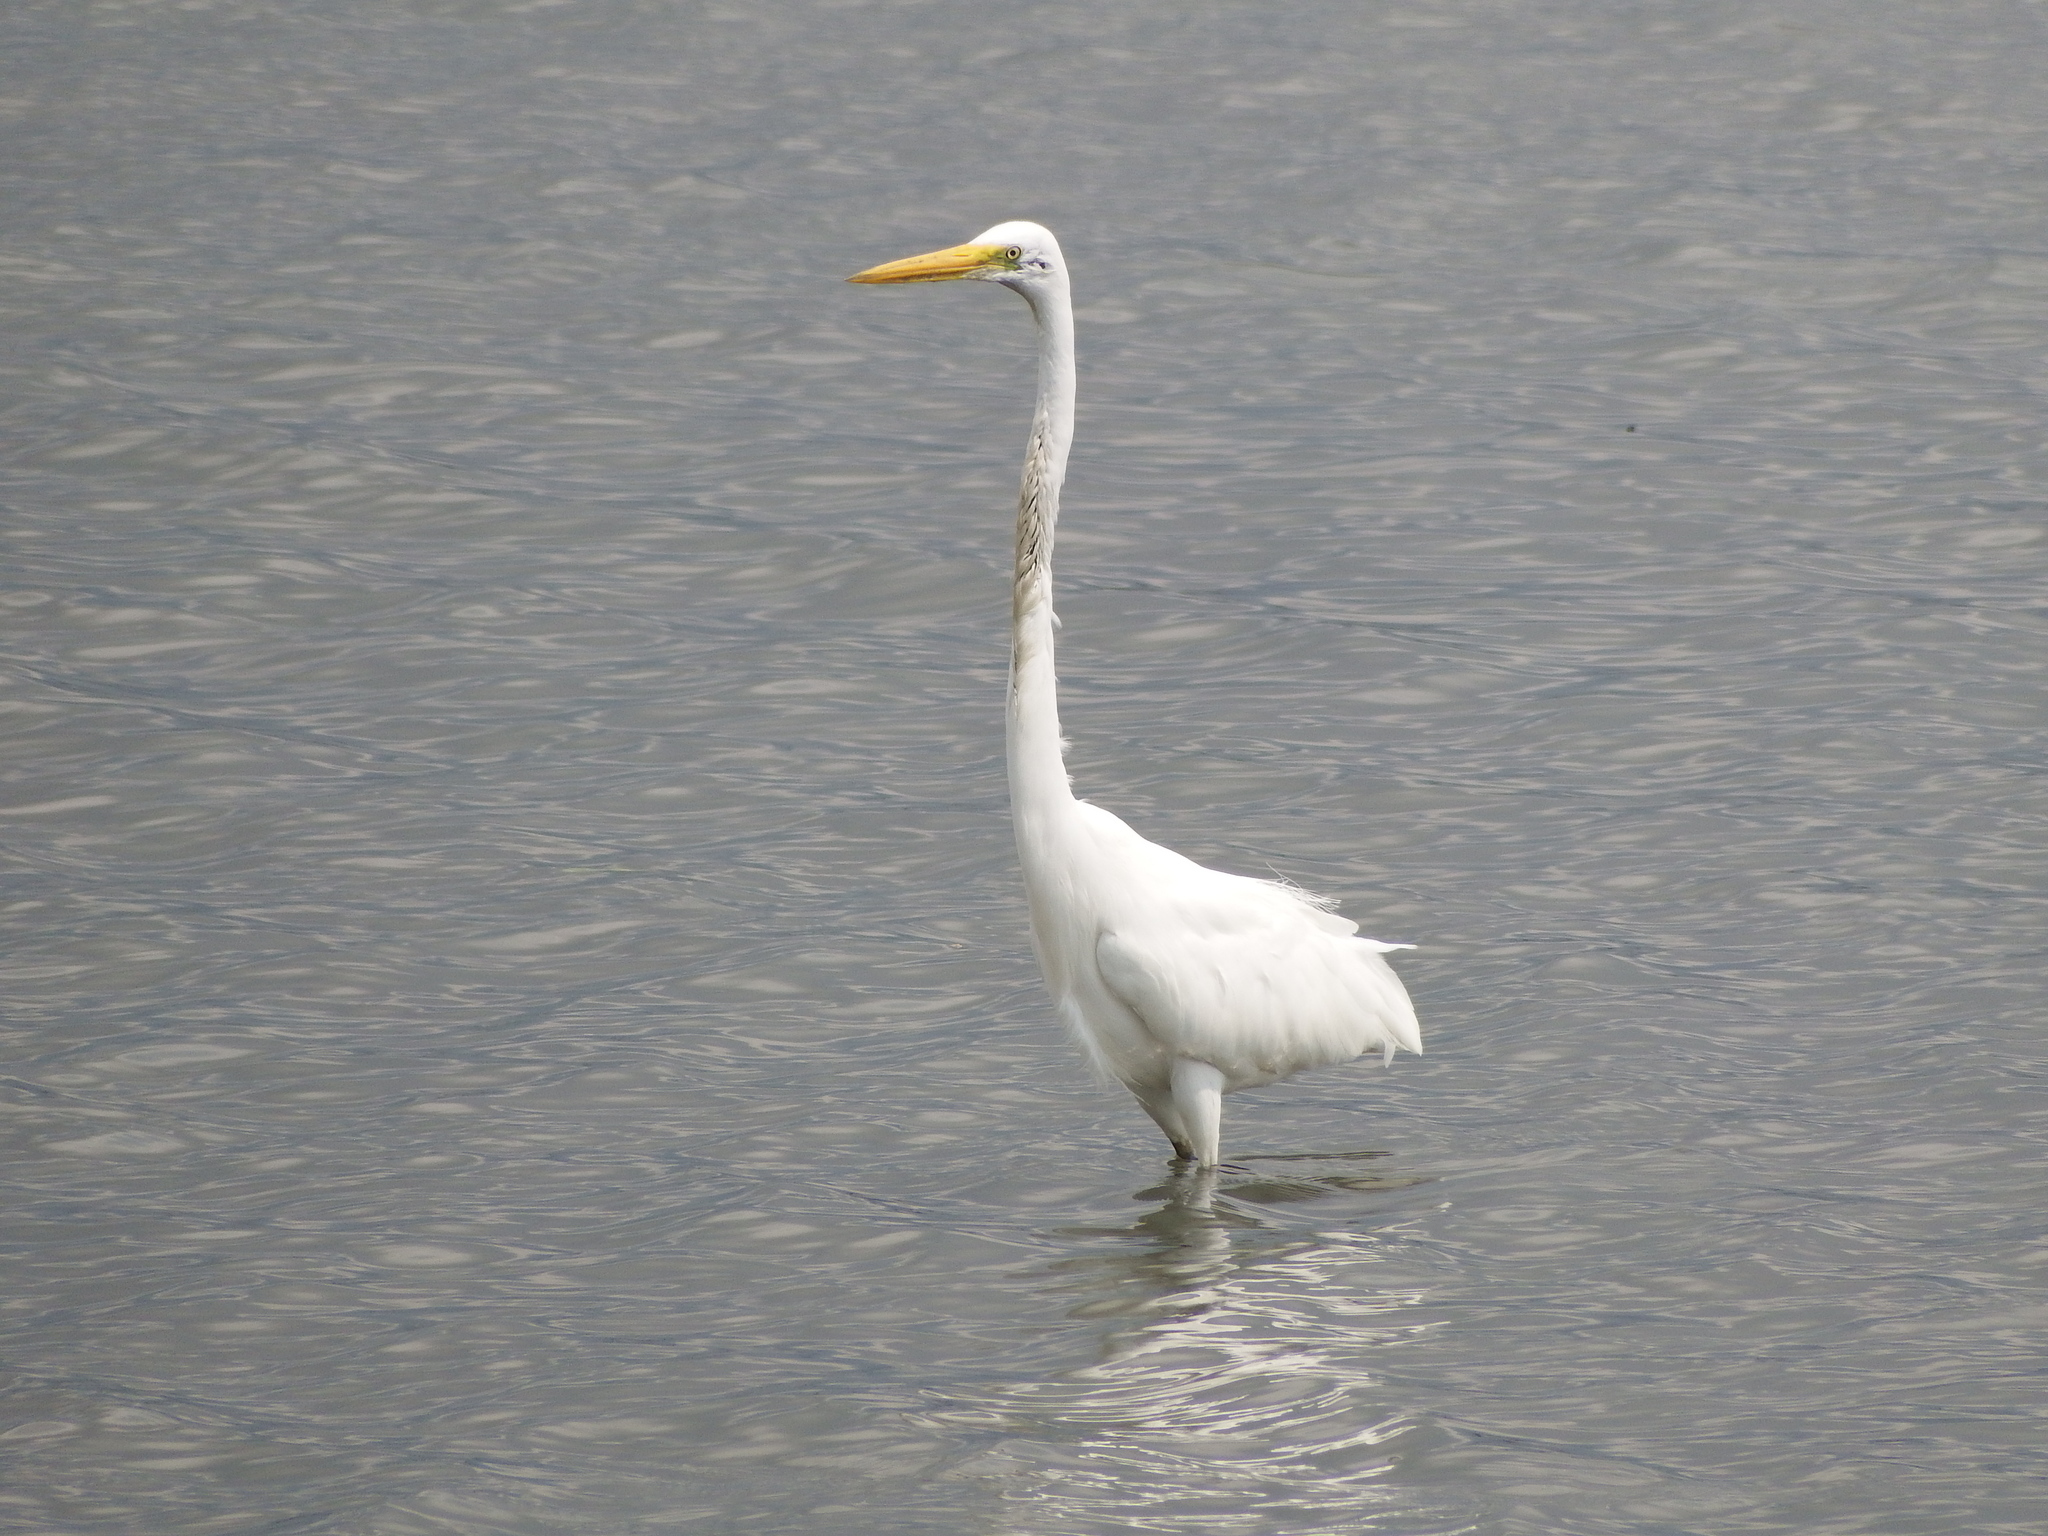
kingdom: Animalia
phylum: Chordata
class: Aves
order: Pelecaniformes
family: Ardeidae
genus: Ardea
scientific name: Ardea alba
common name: Great egret
